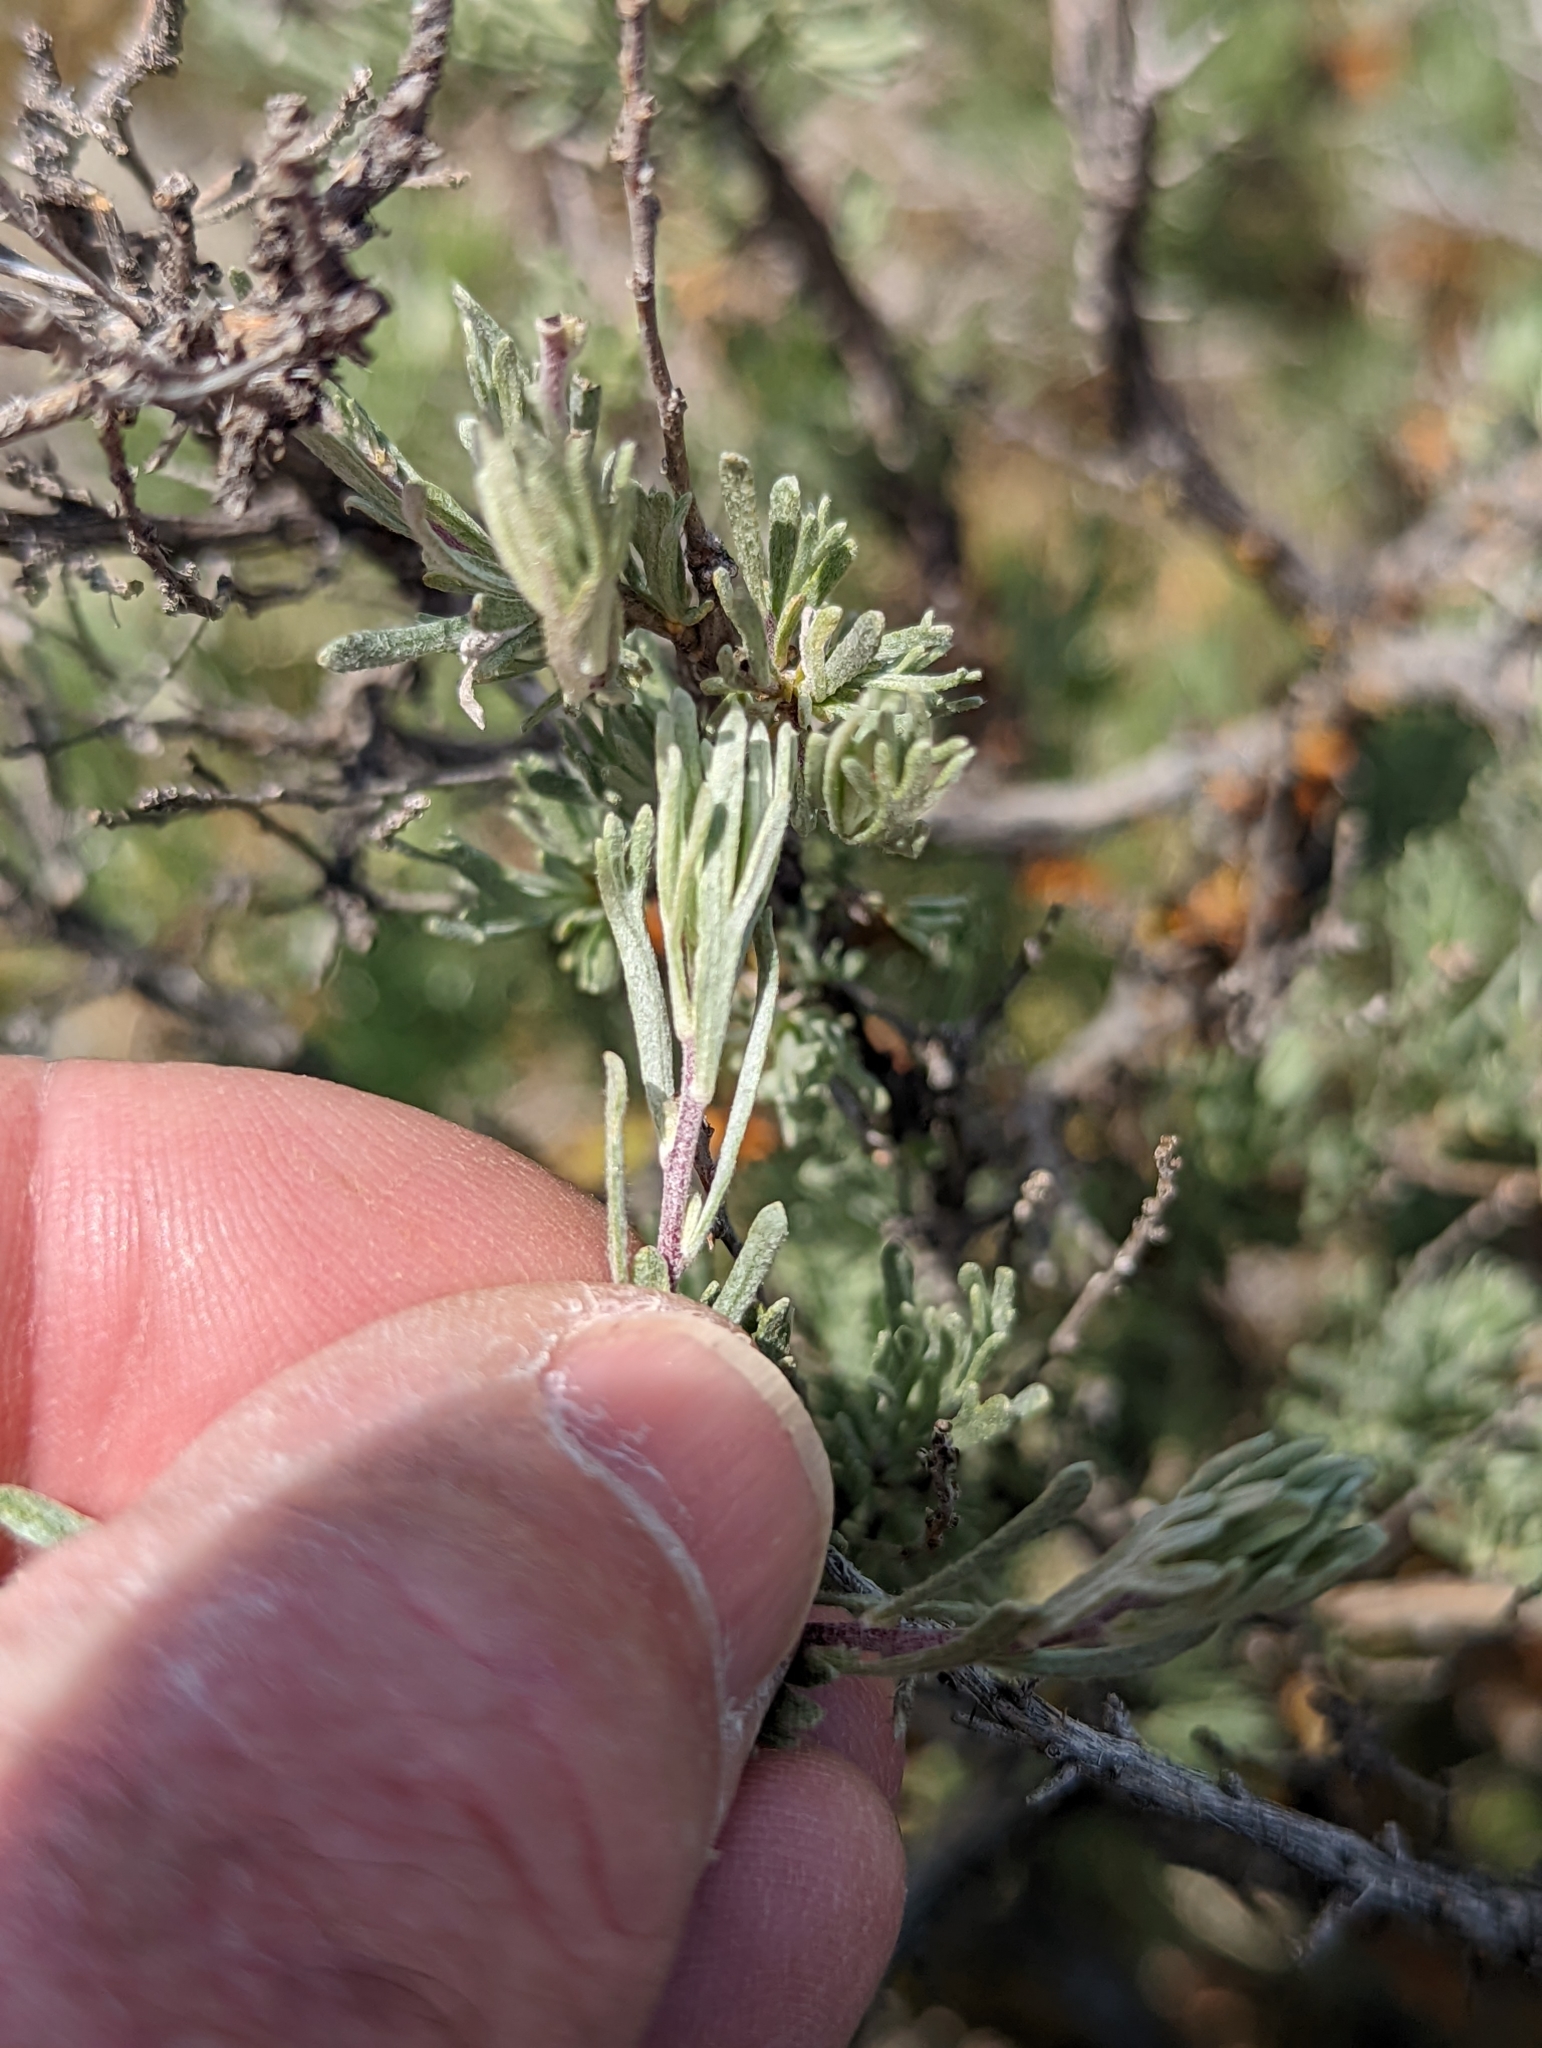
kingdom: Plantae
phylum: Tracheophyta
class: Magnoliopsida
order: Asterales
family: Asteraceae
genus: Artemisia
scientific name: Artemisia tripartita
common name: Three-tip sagebrush
